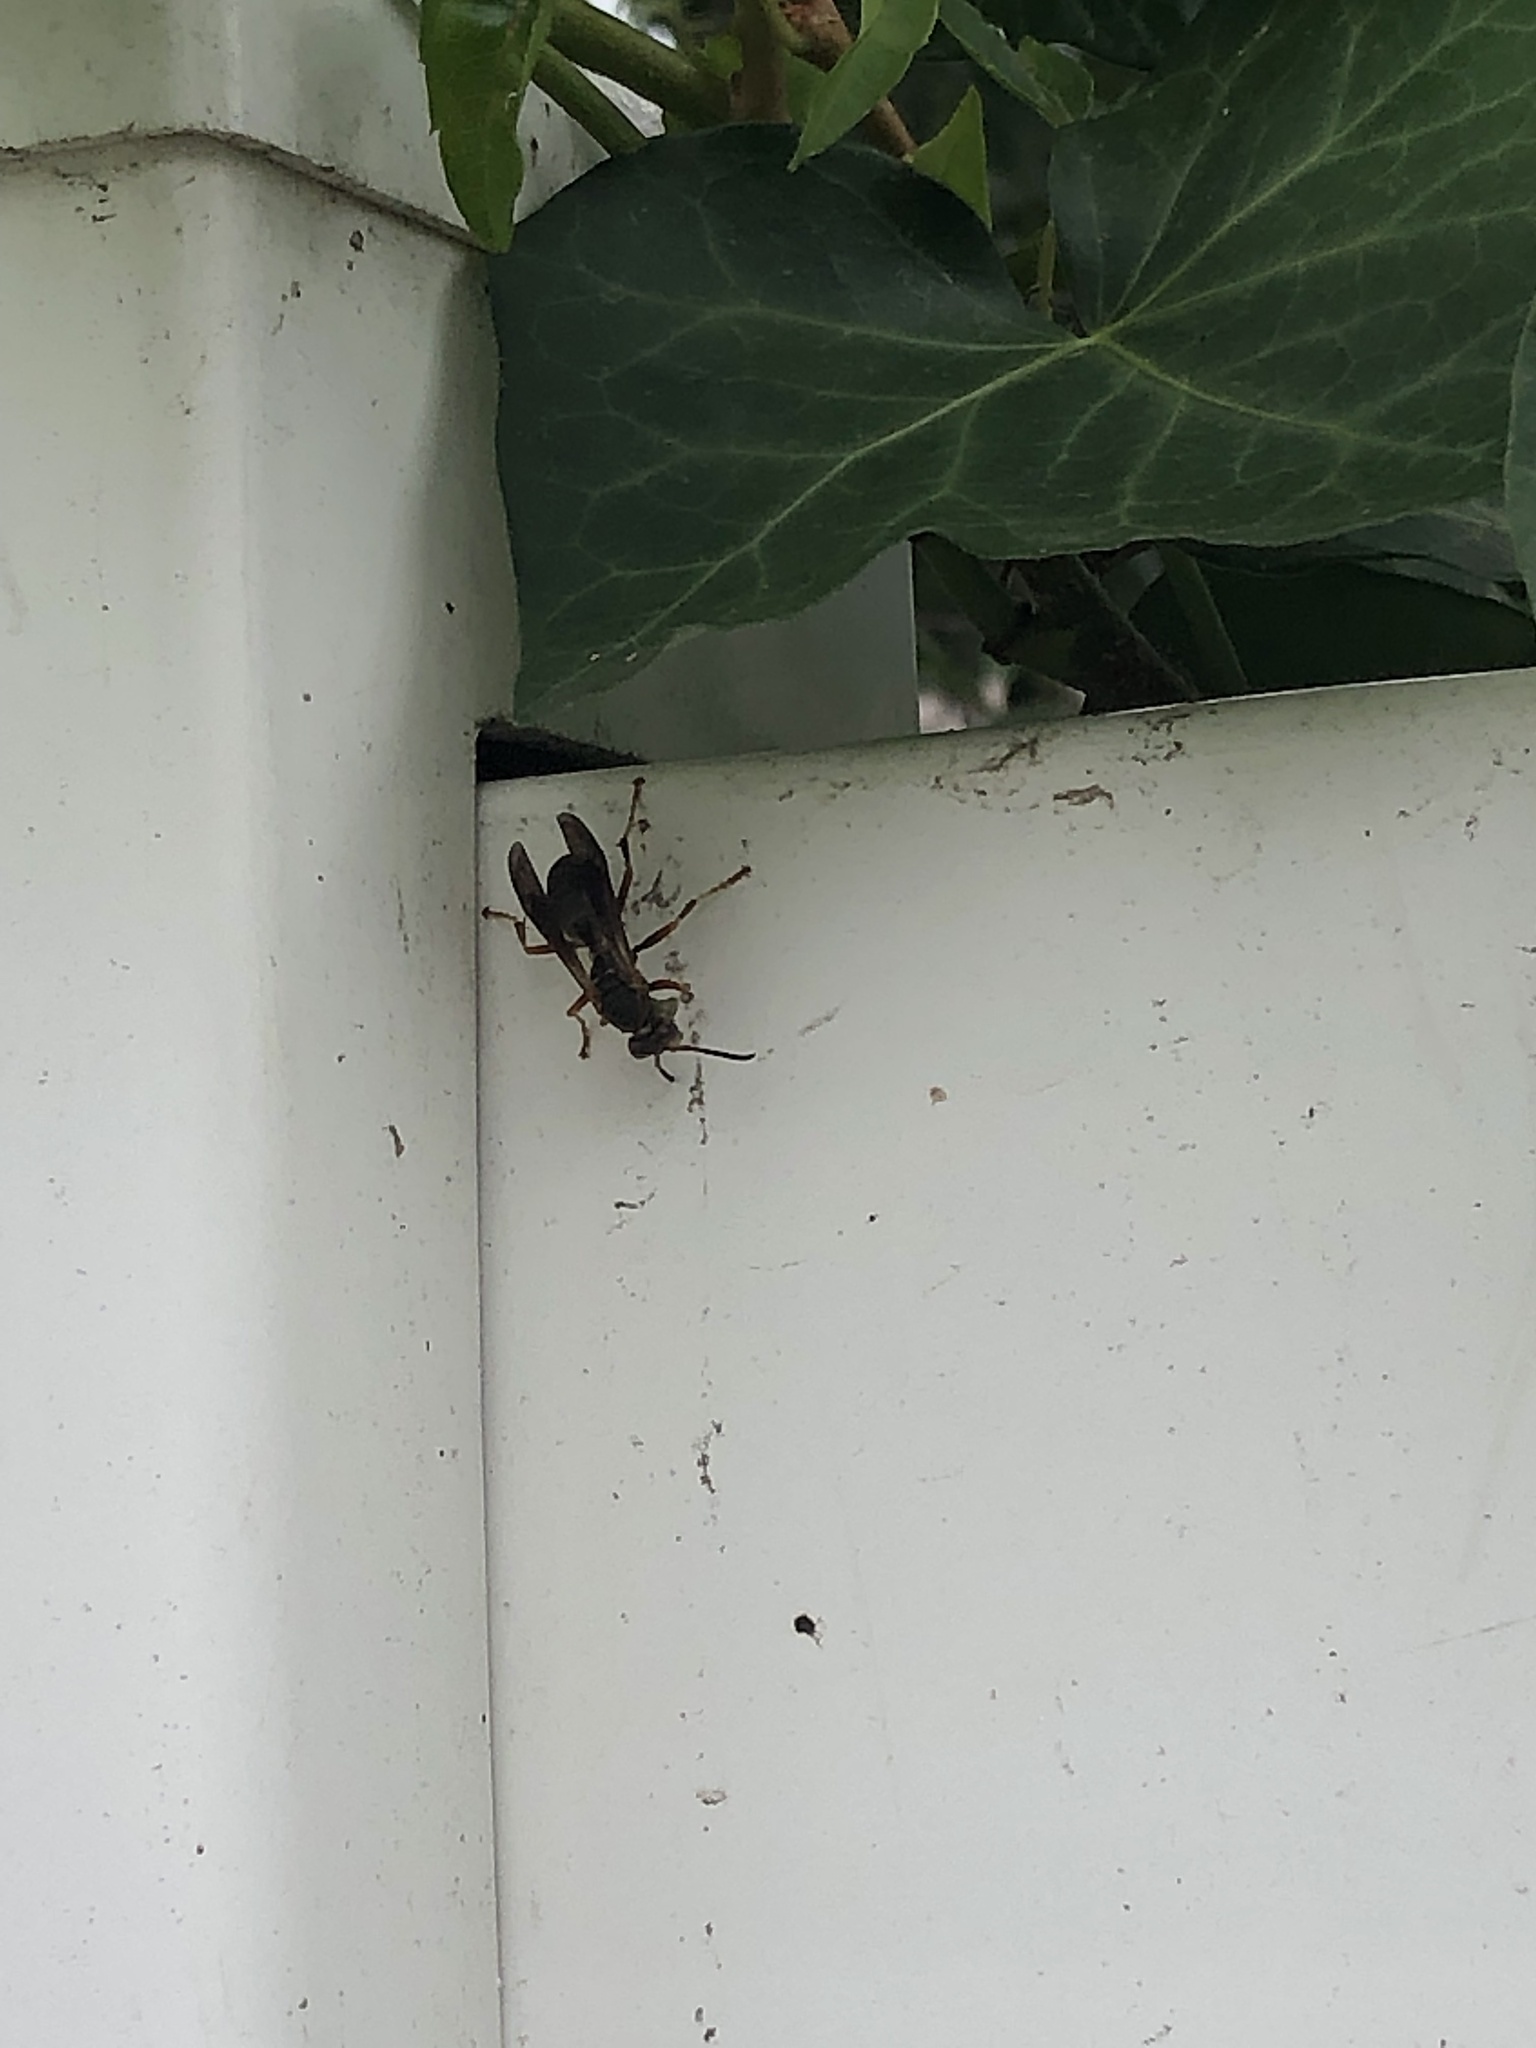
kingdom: Animalia
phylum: Arthropoda
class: Insecta
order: Hymenoptera
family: Eumenidae
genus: Polistes
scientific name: Polistes fuscatus
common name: Dark paper wasp
